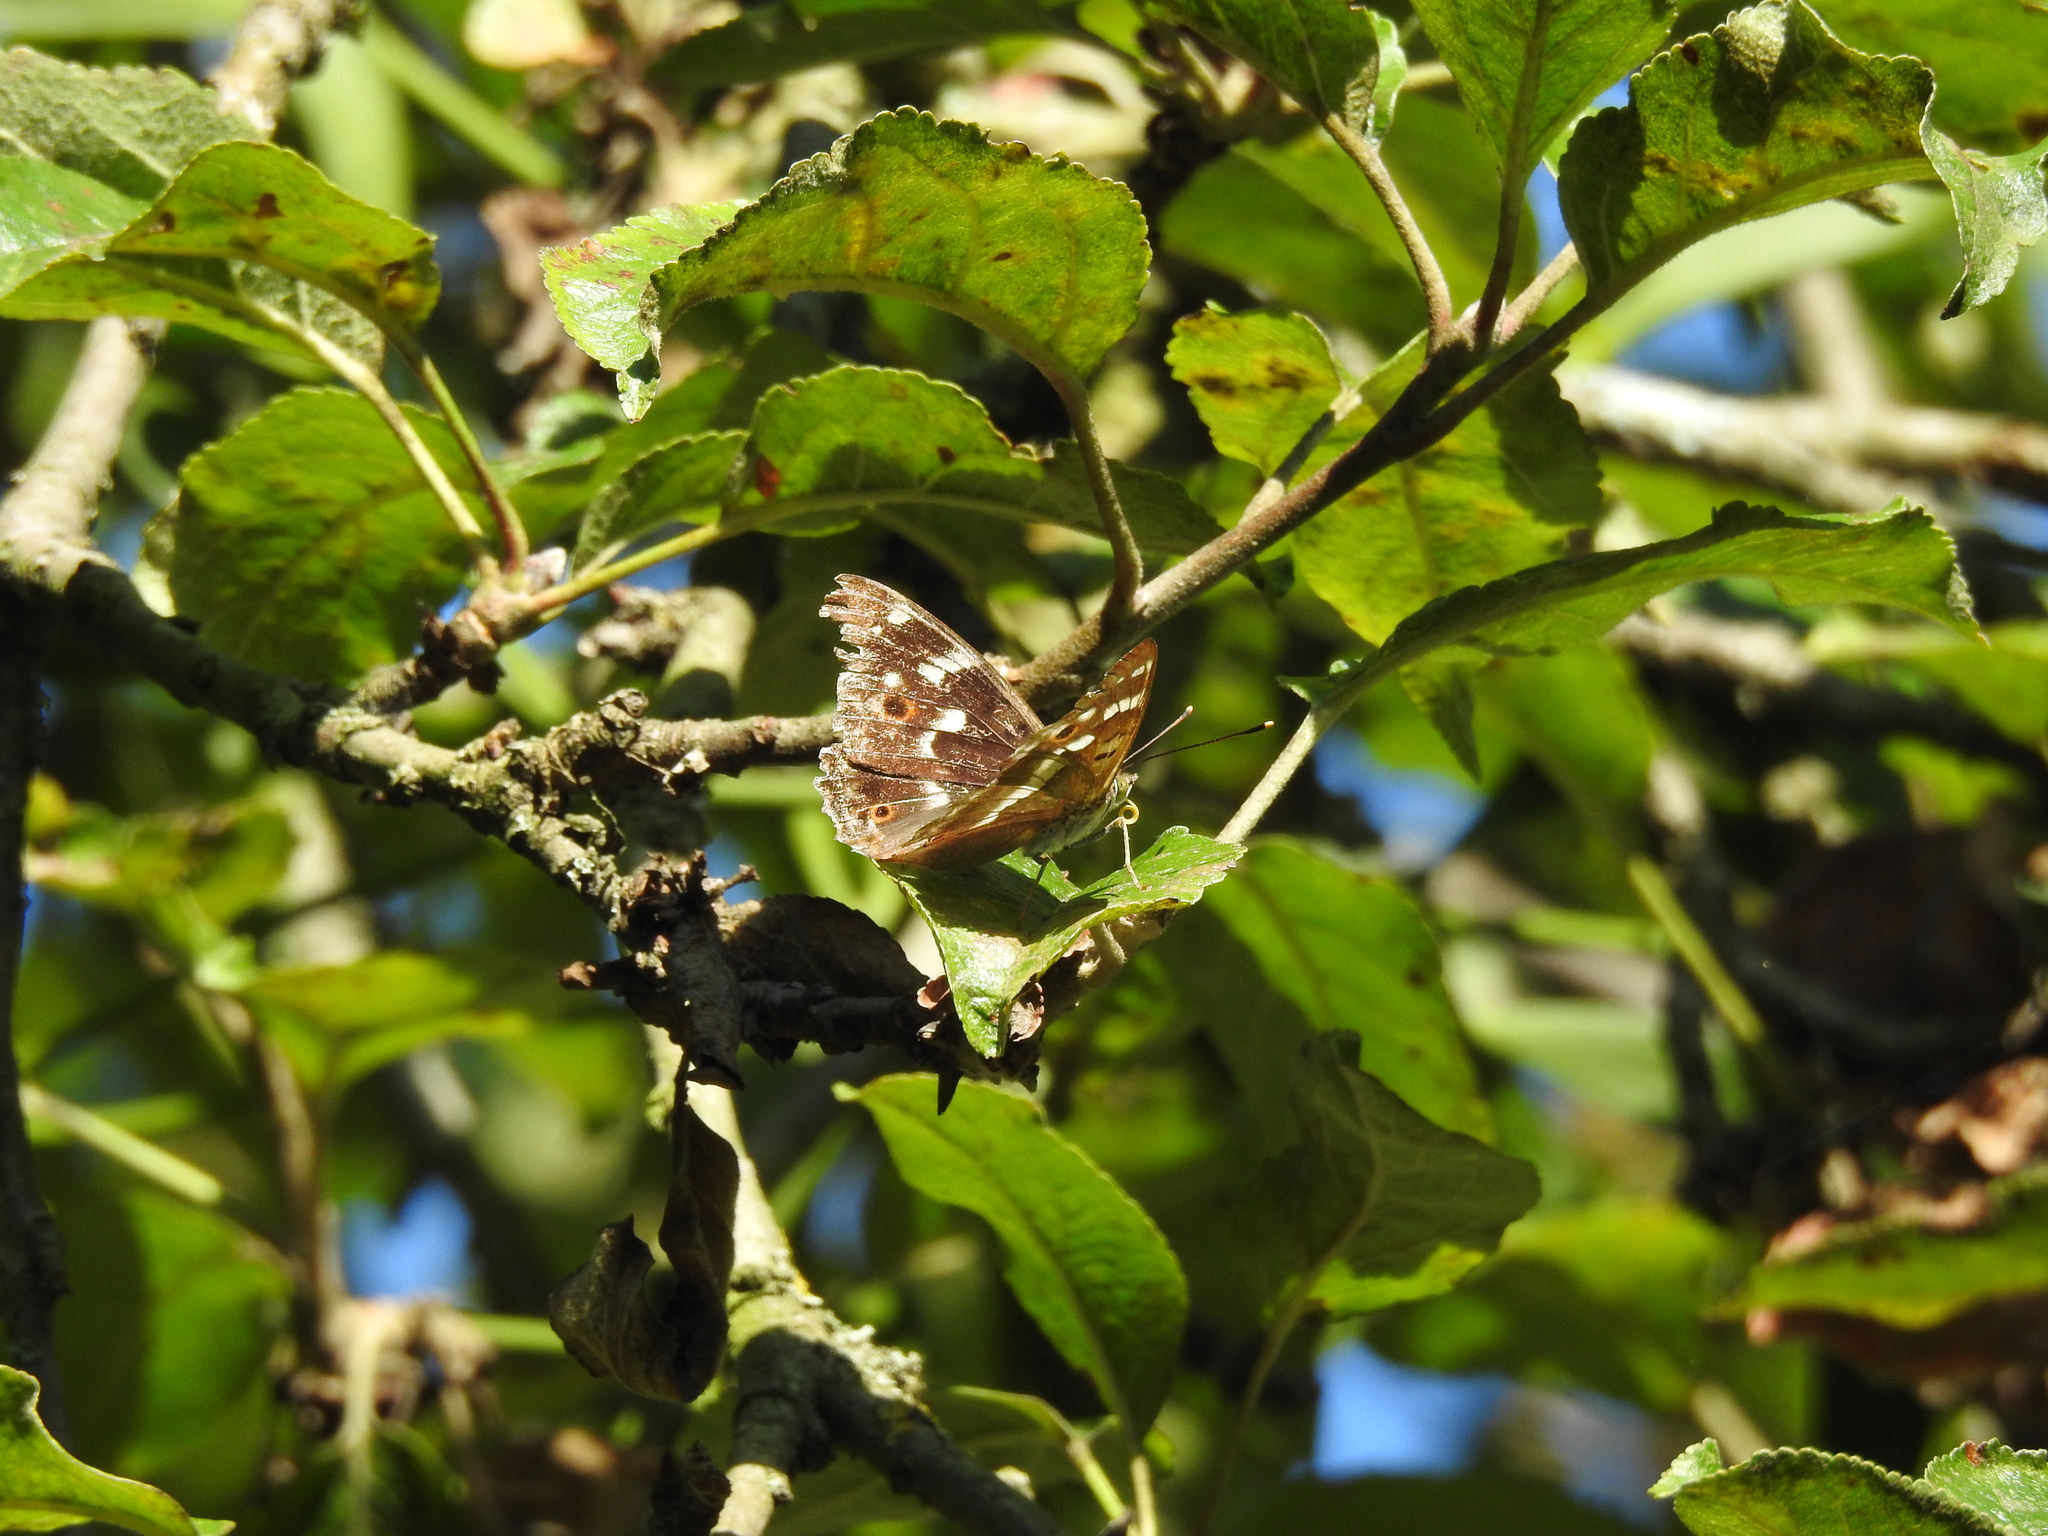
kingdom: Animalia
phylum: Arthropoda
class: Insecta
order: Lepidoptera
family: Nymphalidae
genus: Apatura
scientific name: Apatura ilia
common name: Lesser purple emperor
